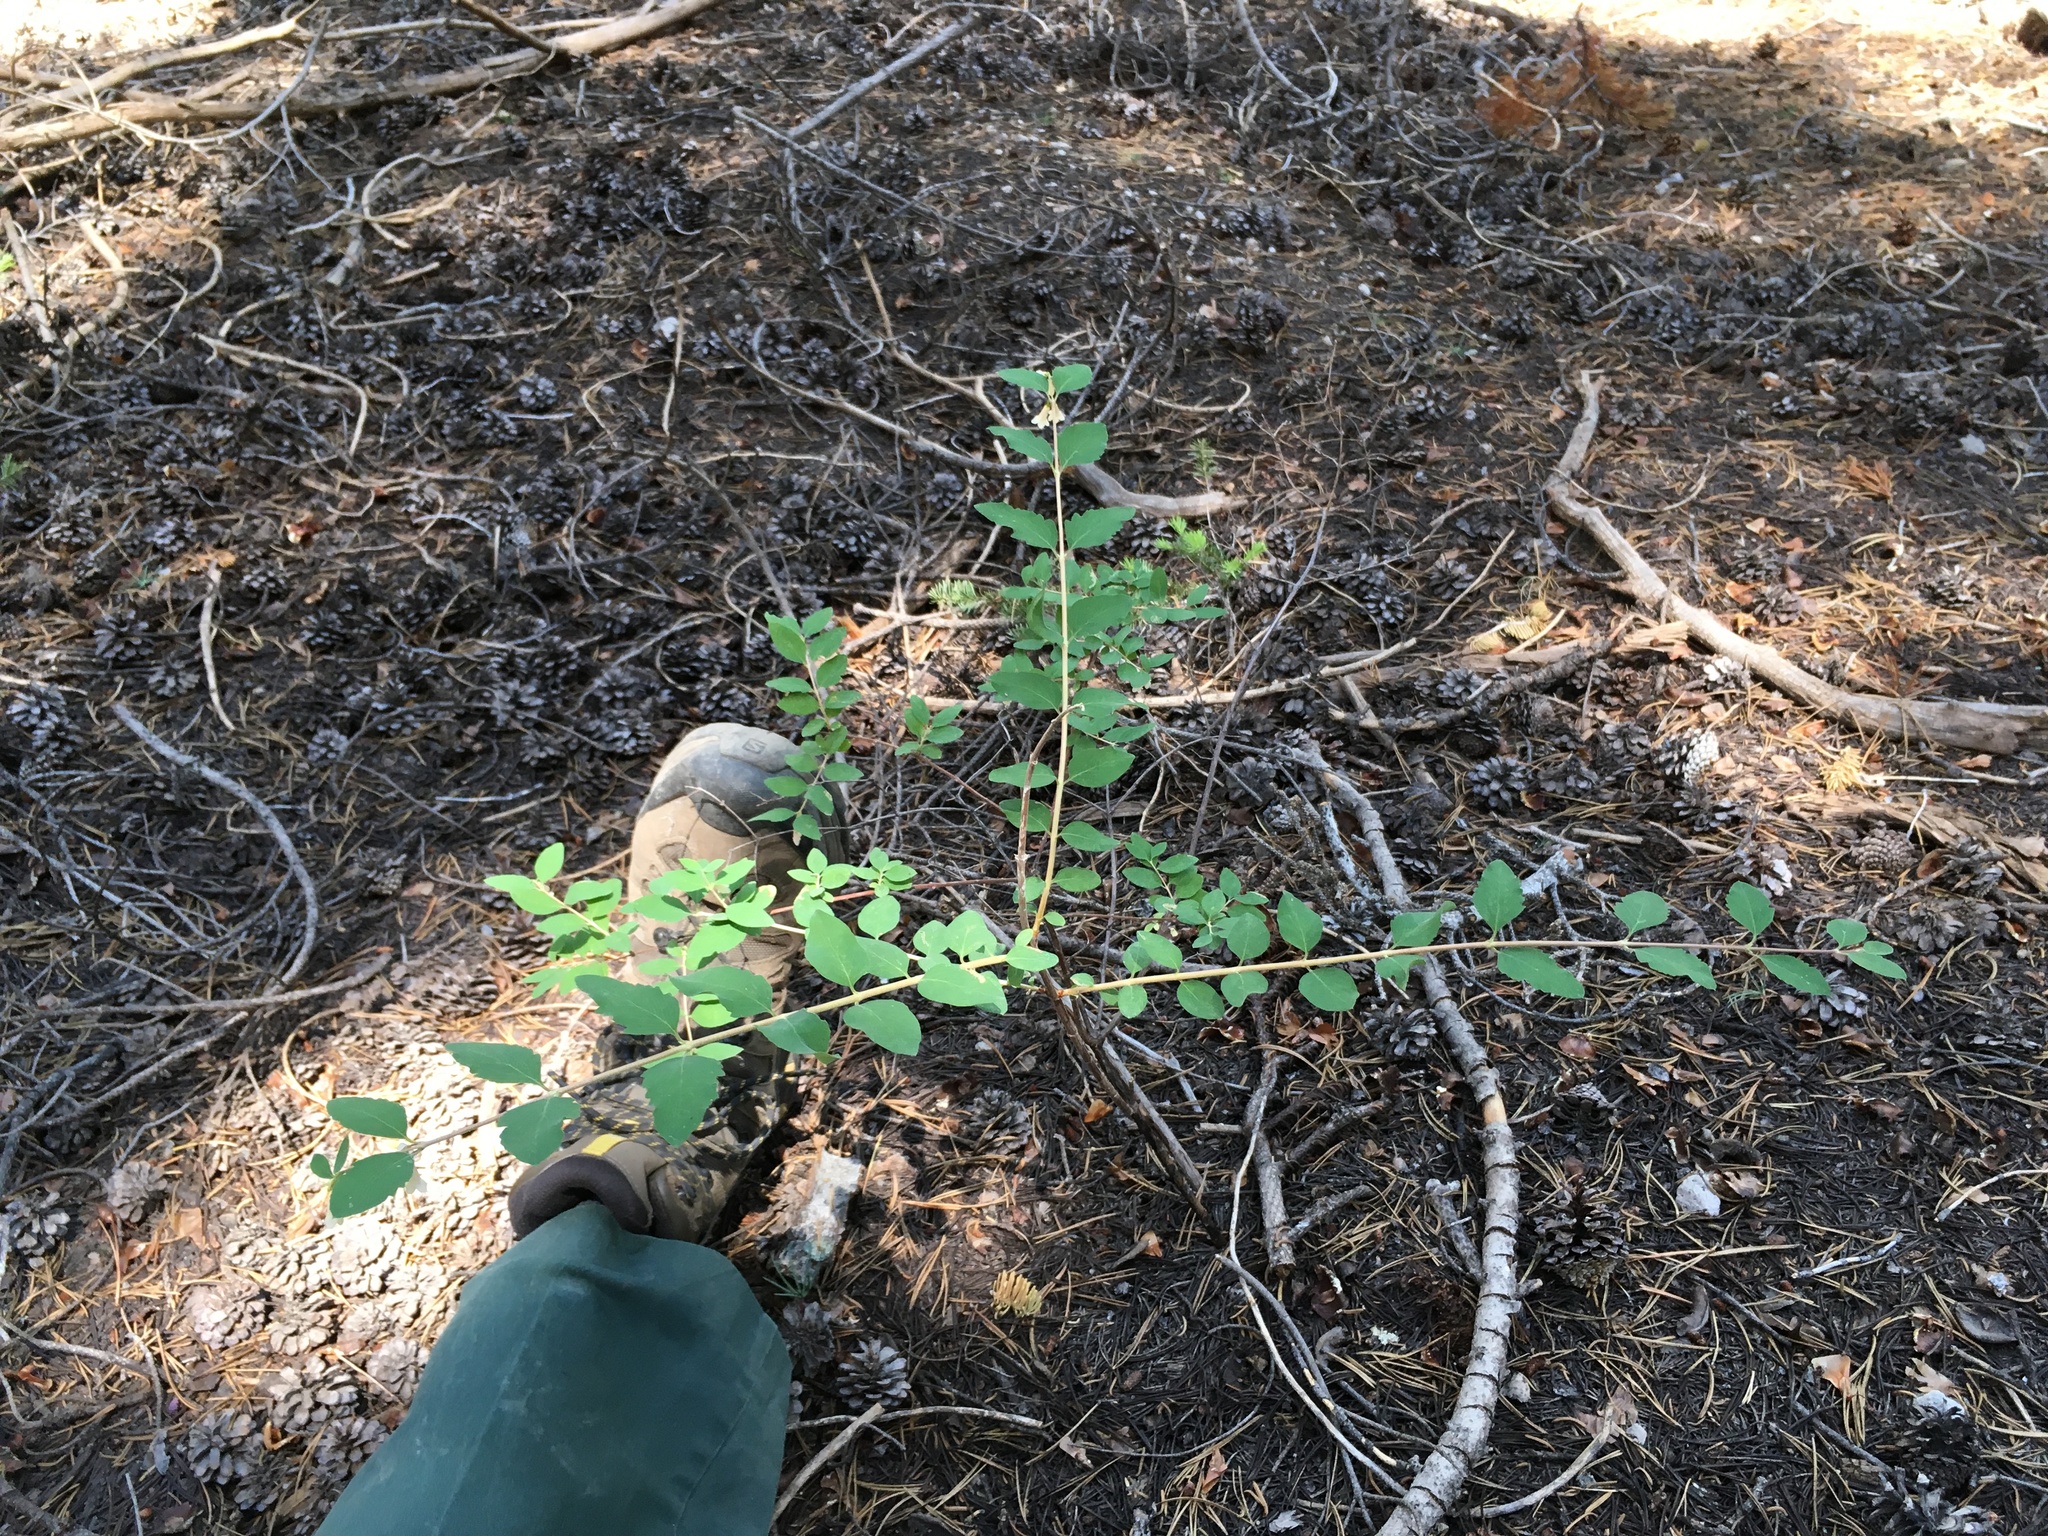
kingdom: Plantae
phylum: Tracheophyta
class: Magnoliopsida
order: Dipsacales
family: Caprifoliaceae
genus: Symphoricarpos
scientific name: Symphoricarpos rotundifolius
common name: Round-leaved snowberry
